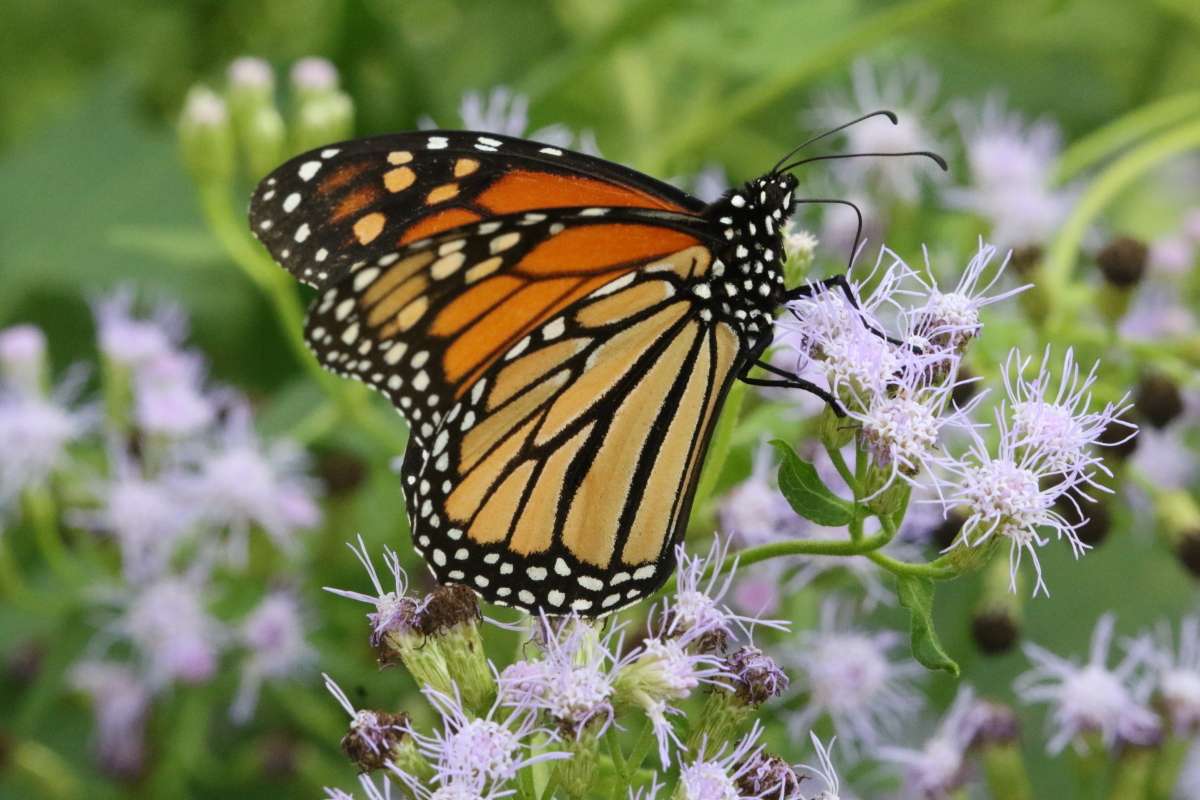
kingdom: Animalia
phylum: Arthropoda
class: Insecta
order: Lepidoptera
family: Nymphalidae
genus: Danaus
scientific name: Danaus plexippus
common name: Monarch
